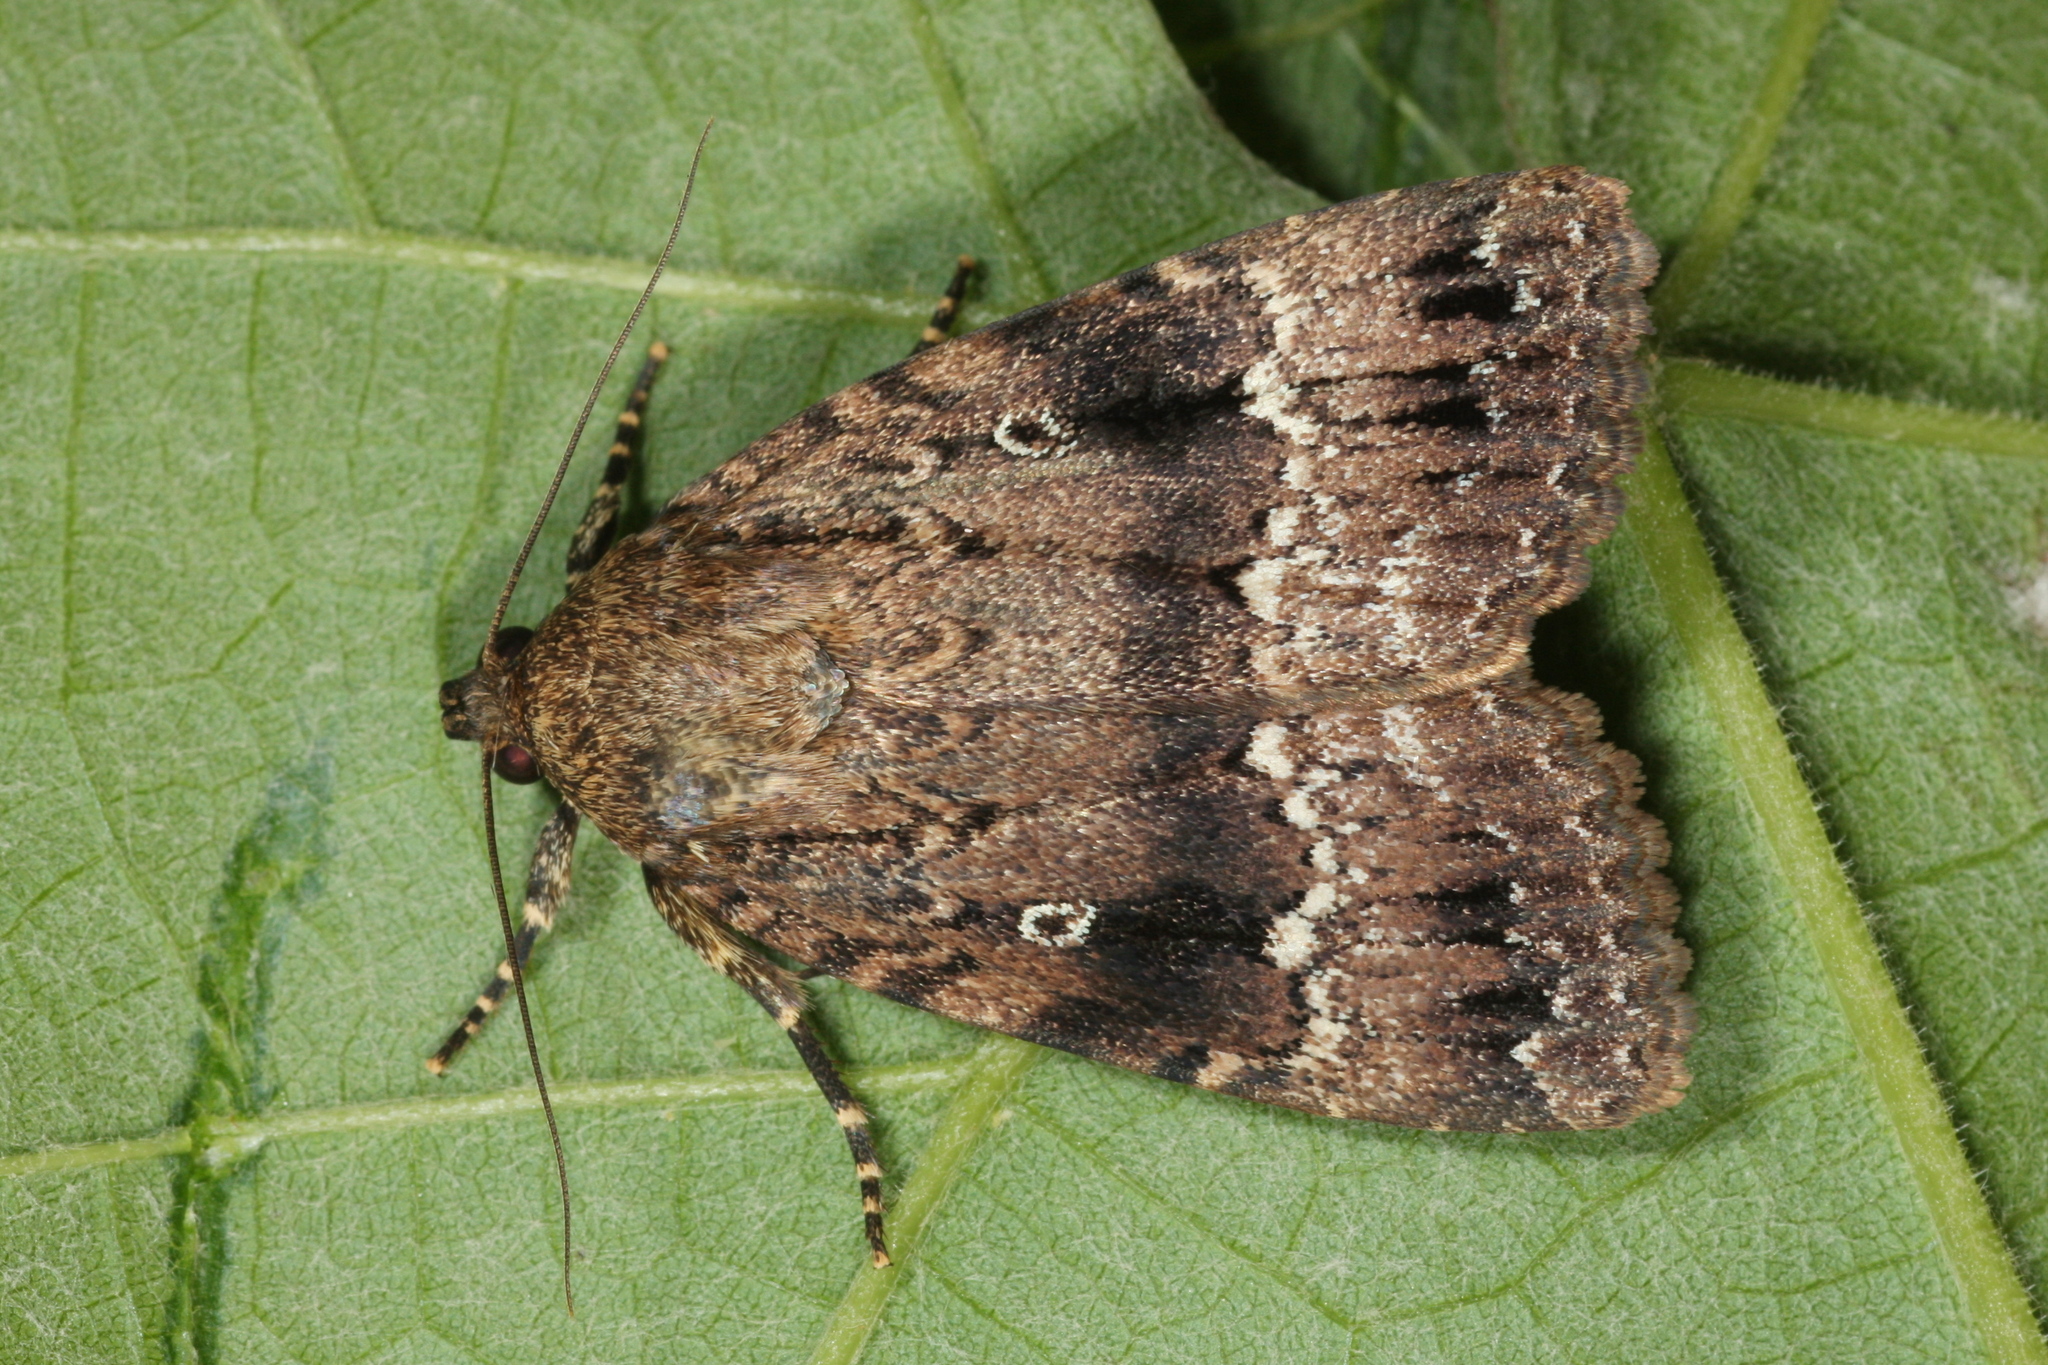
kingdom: Animalia
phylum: Arthropoda
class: Insecta
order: Lepidoptera
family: Noctuidae
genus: Amphipyra
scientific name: Amphipyra pyramidea
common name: Copper underwing
